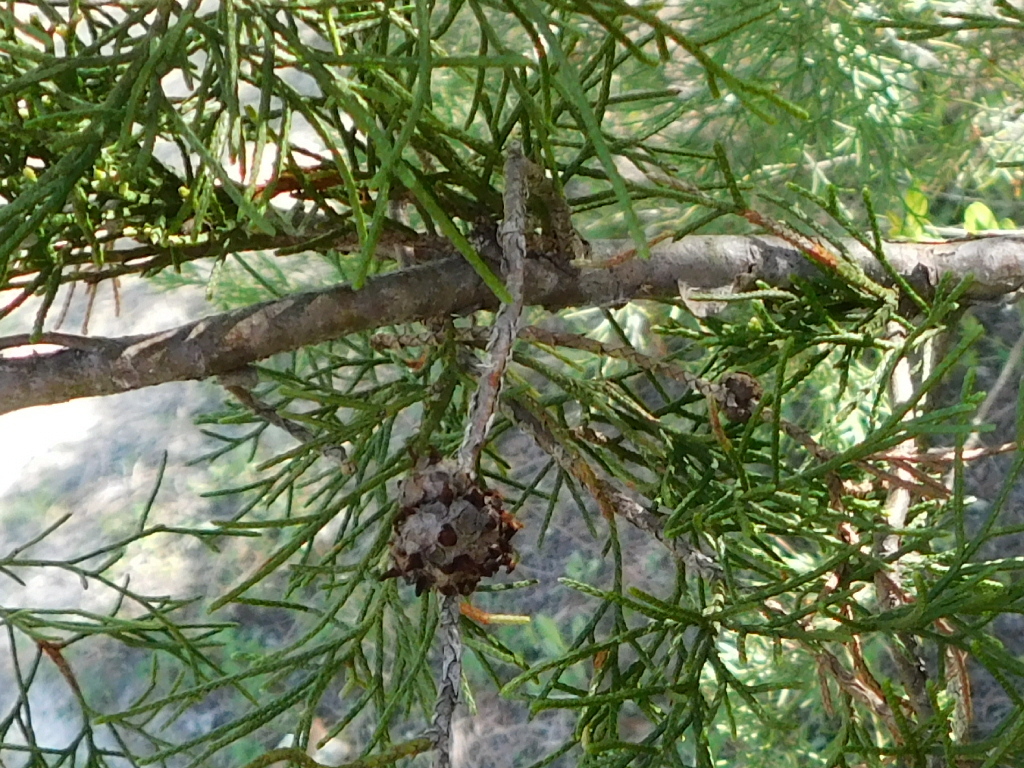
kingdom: Fungi
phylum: Basidiomycota
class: Pucciniomycetes
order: Pucciniales
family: Gymnosporangiaceae
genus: Gymnosporangium
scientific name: Gymnosporangium juniperi-virginianae
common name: Juniper-apple rust
